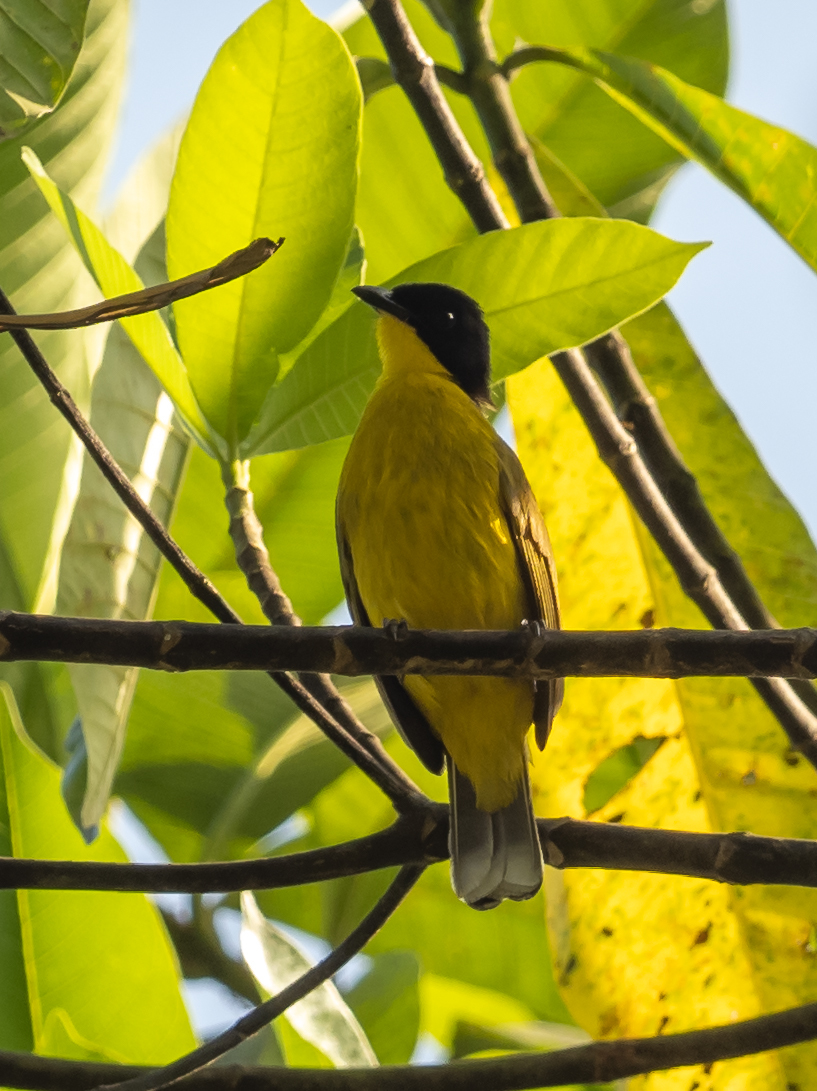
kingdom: Animalia
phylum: Chordata
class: Aves
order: Passeriformes
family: Pycnonotidae
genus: Pycnonotus
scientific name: Pycnonotus melanicterus
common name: Black-crested bulbul
